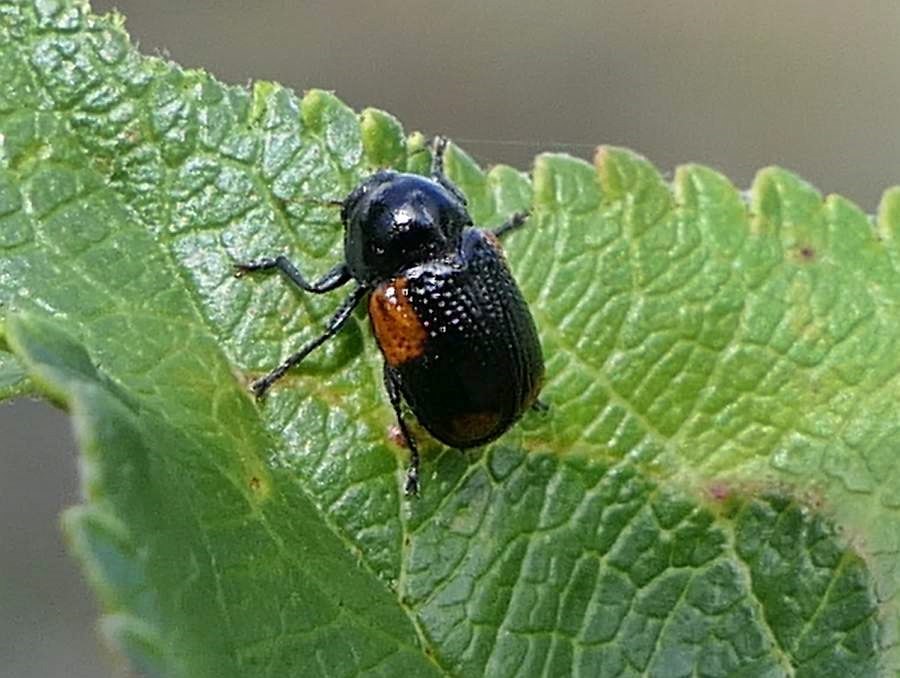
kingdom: Animalia
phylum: Arthropoda
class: Insecta
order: Coleoptera
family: Chrysomelidae
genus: Cryptocephalus
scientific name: Cryptocephalus notatus
